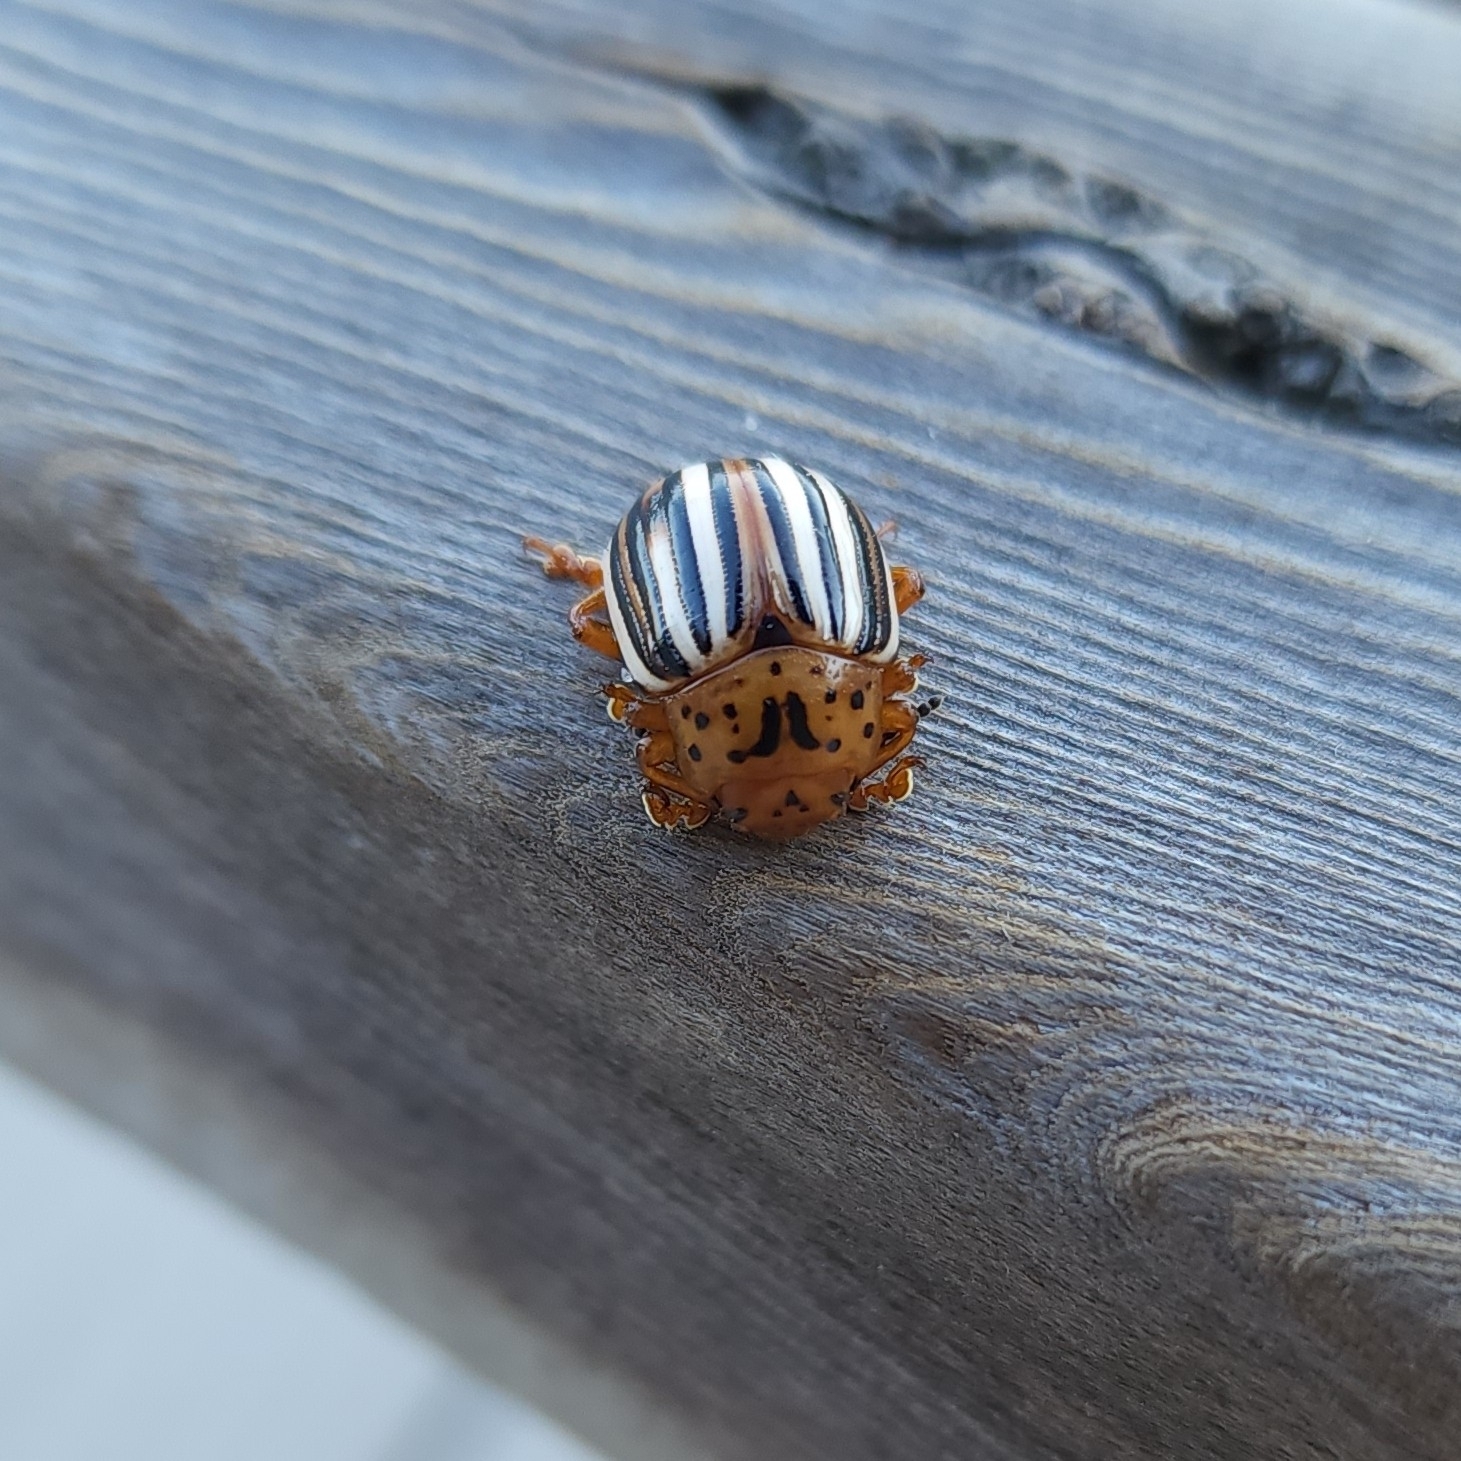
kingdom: Animalia
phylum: Arthropoda
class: Insecta
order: Coleoptera
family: Chrysomelidae
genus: Leptinotarsa
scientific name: Leptinotarsa juncta
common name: False potato beetle
